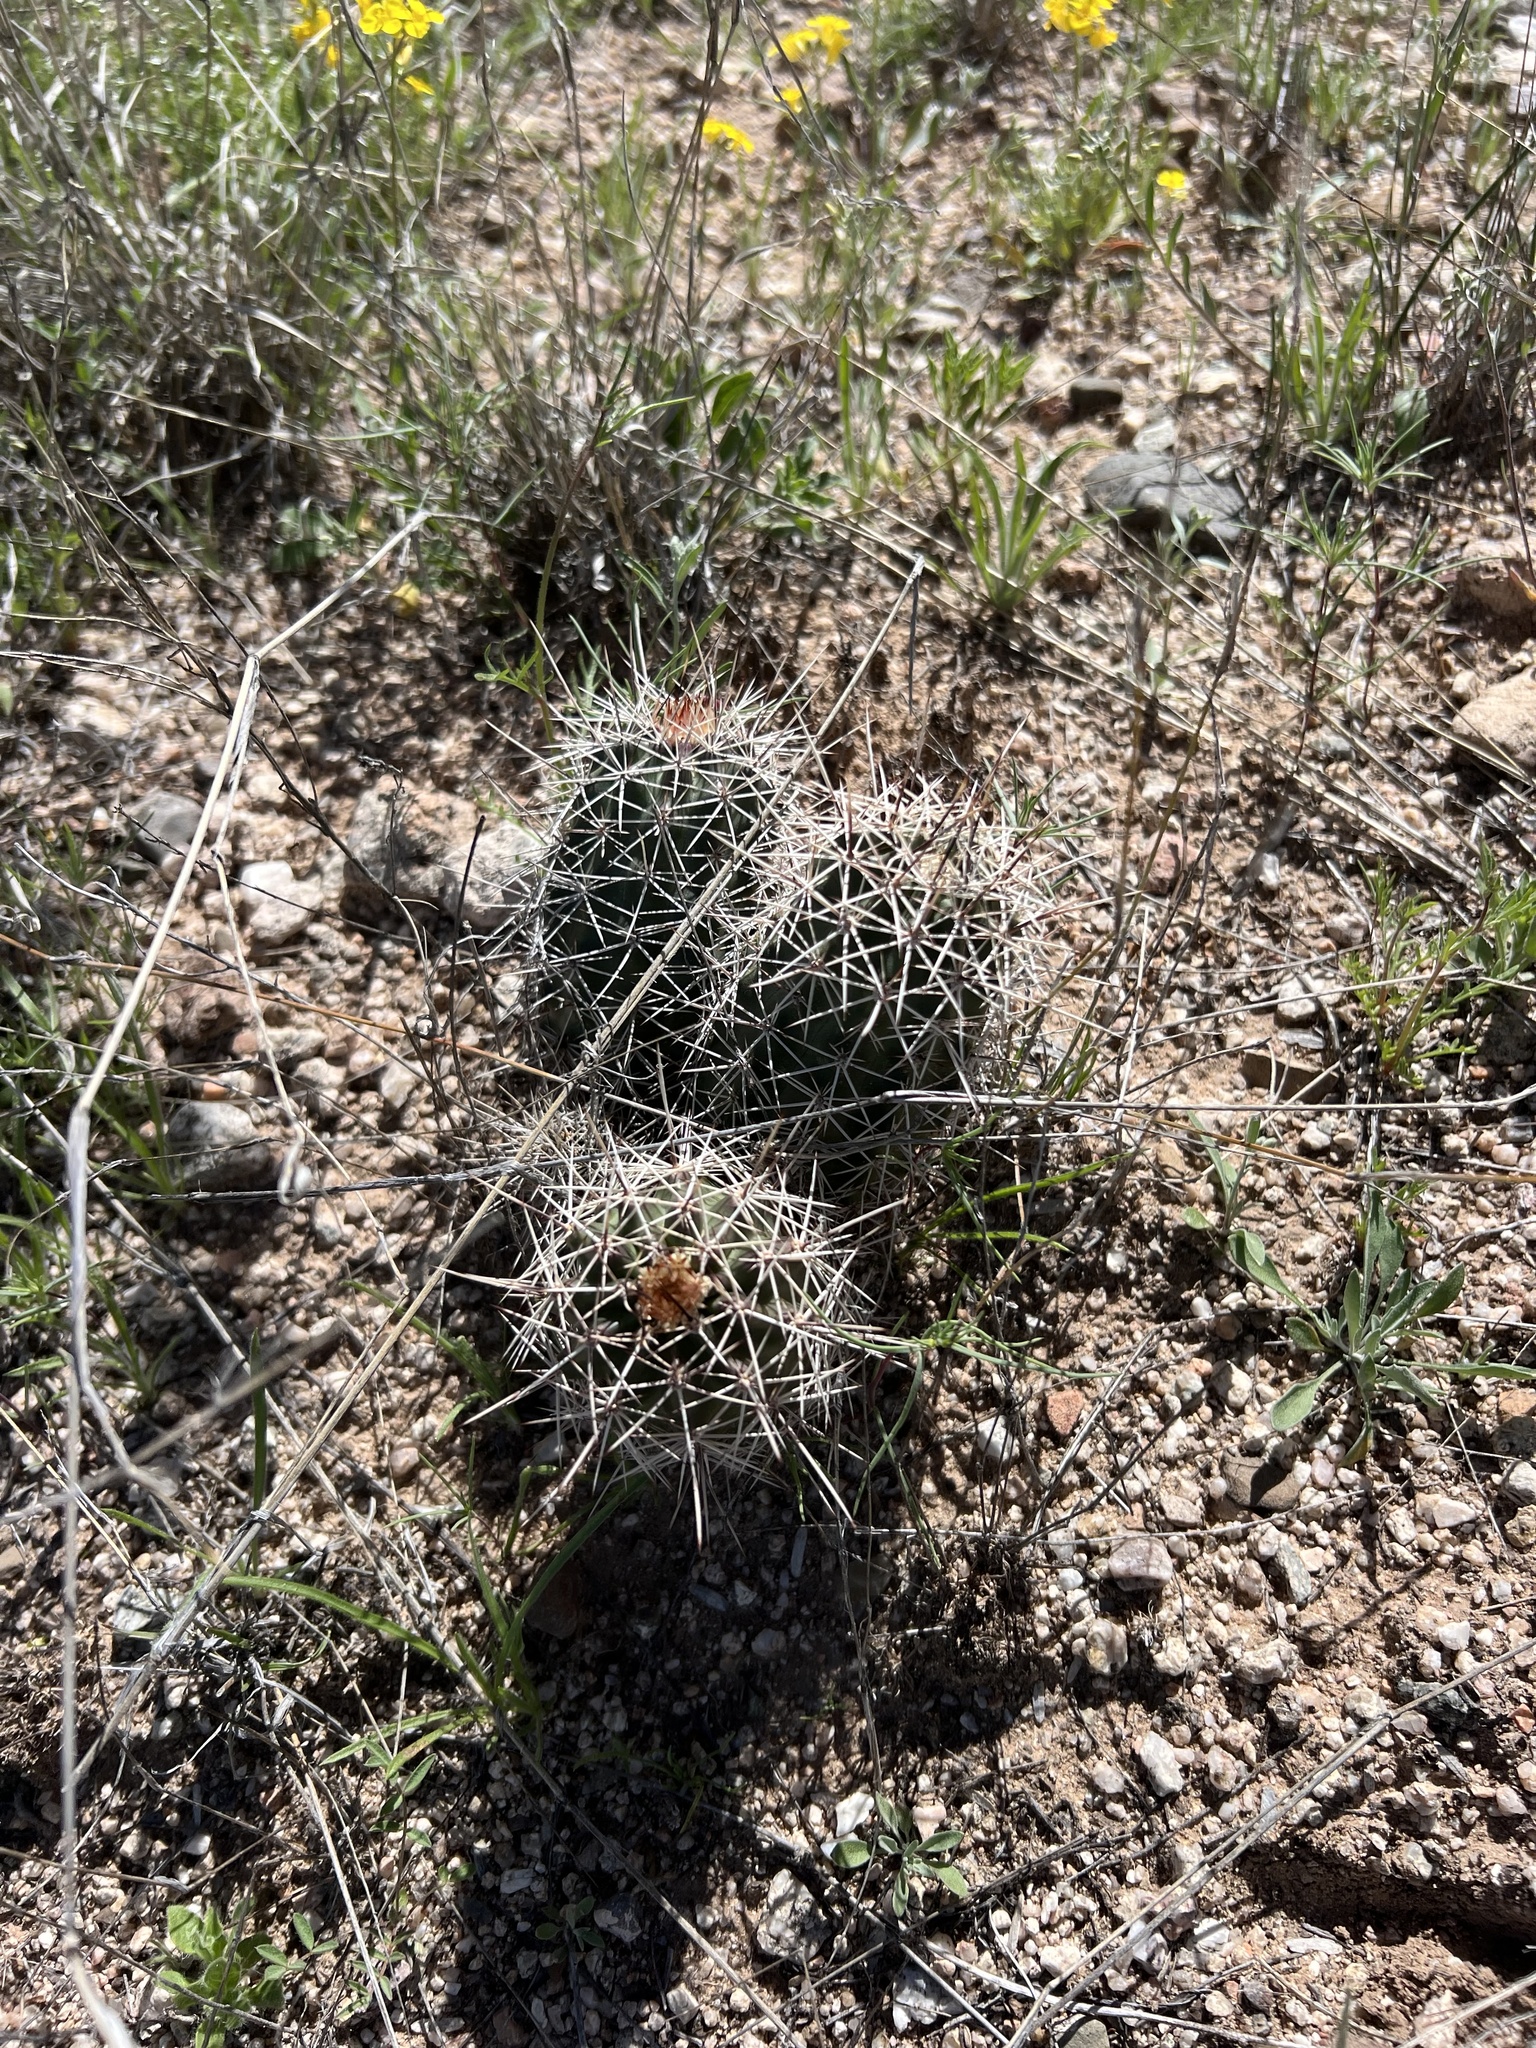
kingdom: Plantae
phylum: Tracheophyta
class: Magnoliopsida
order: Caryophyllales
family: Cactaceae
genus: Echinocereus
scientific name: Echinocereus fasciculatus
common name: Bundle hedgehog
